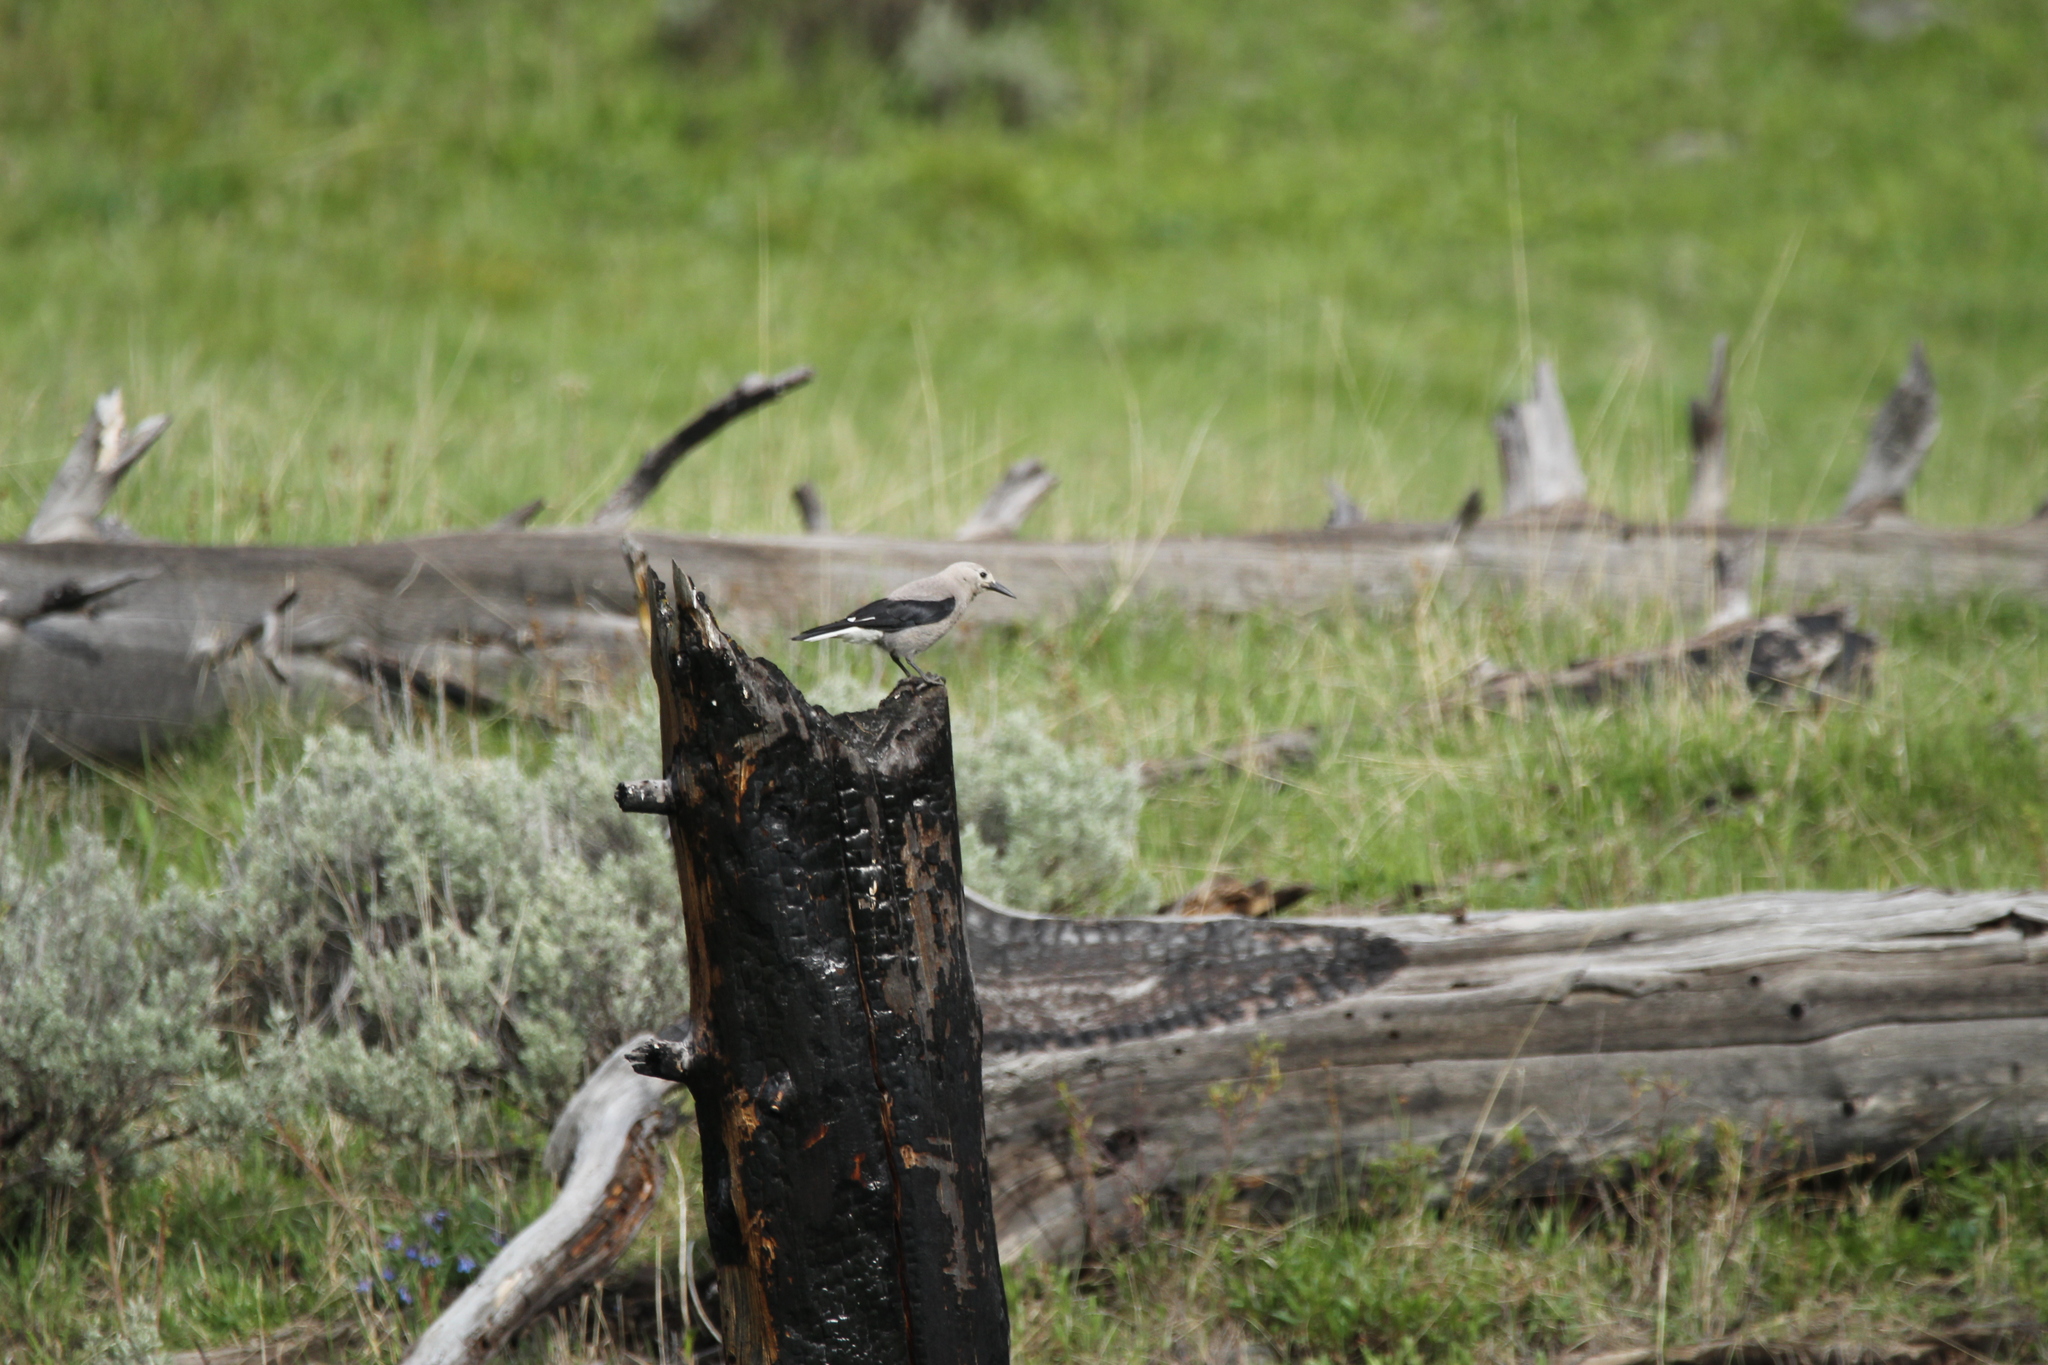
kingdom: Animalia
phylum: Chordata
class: Aves
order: Passeriformes
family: Corvidae
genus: Nucifraga
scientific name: Nucifraga columbiana
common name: Clark's nutcracker
